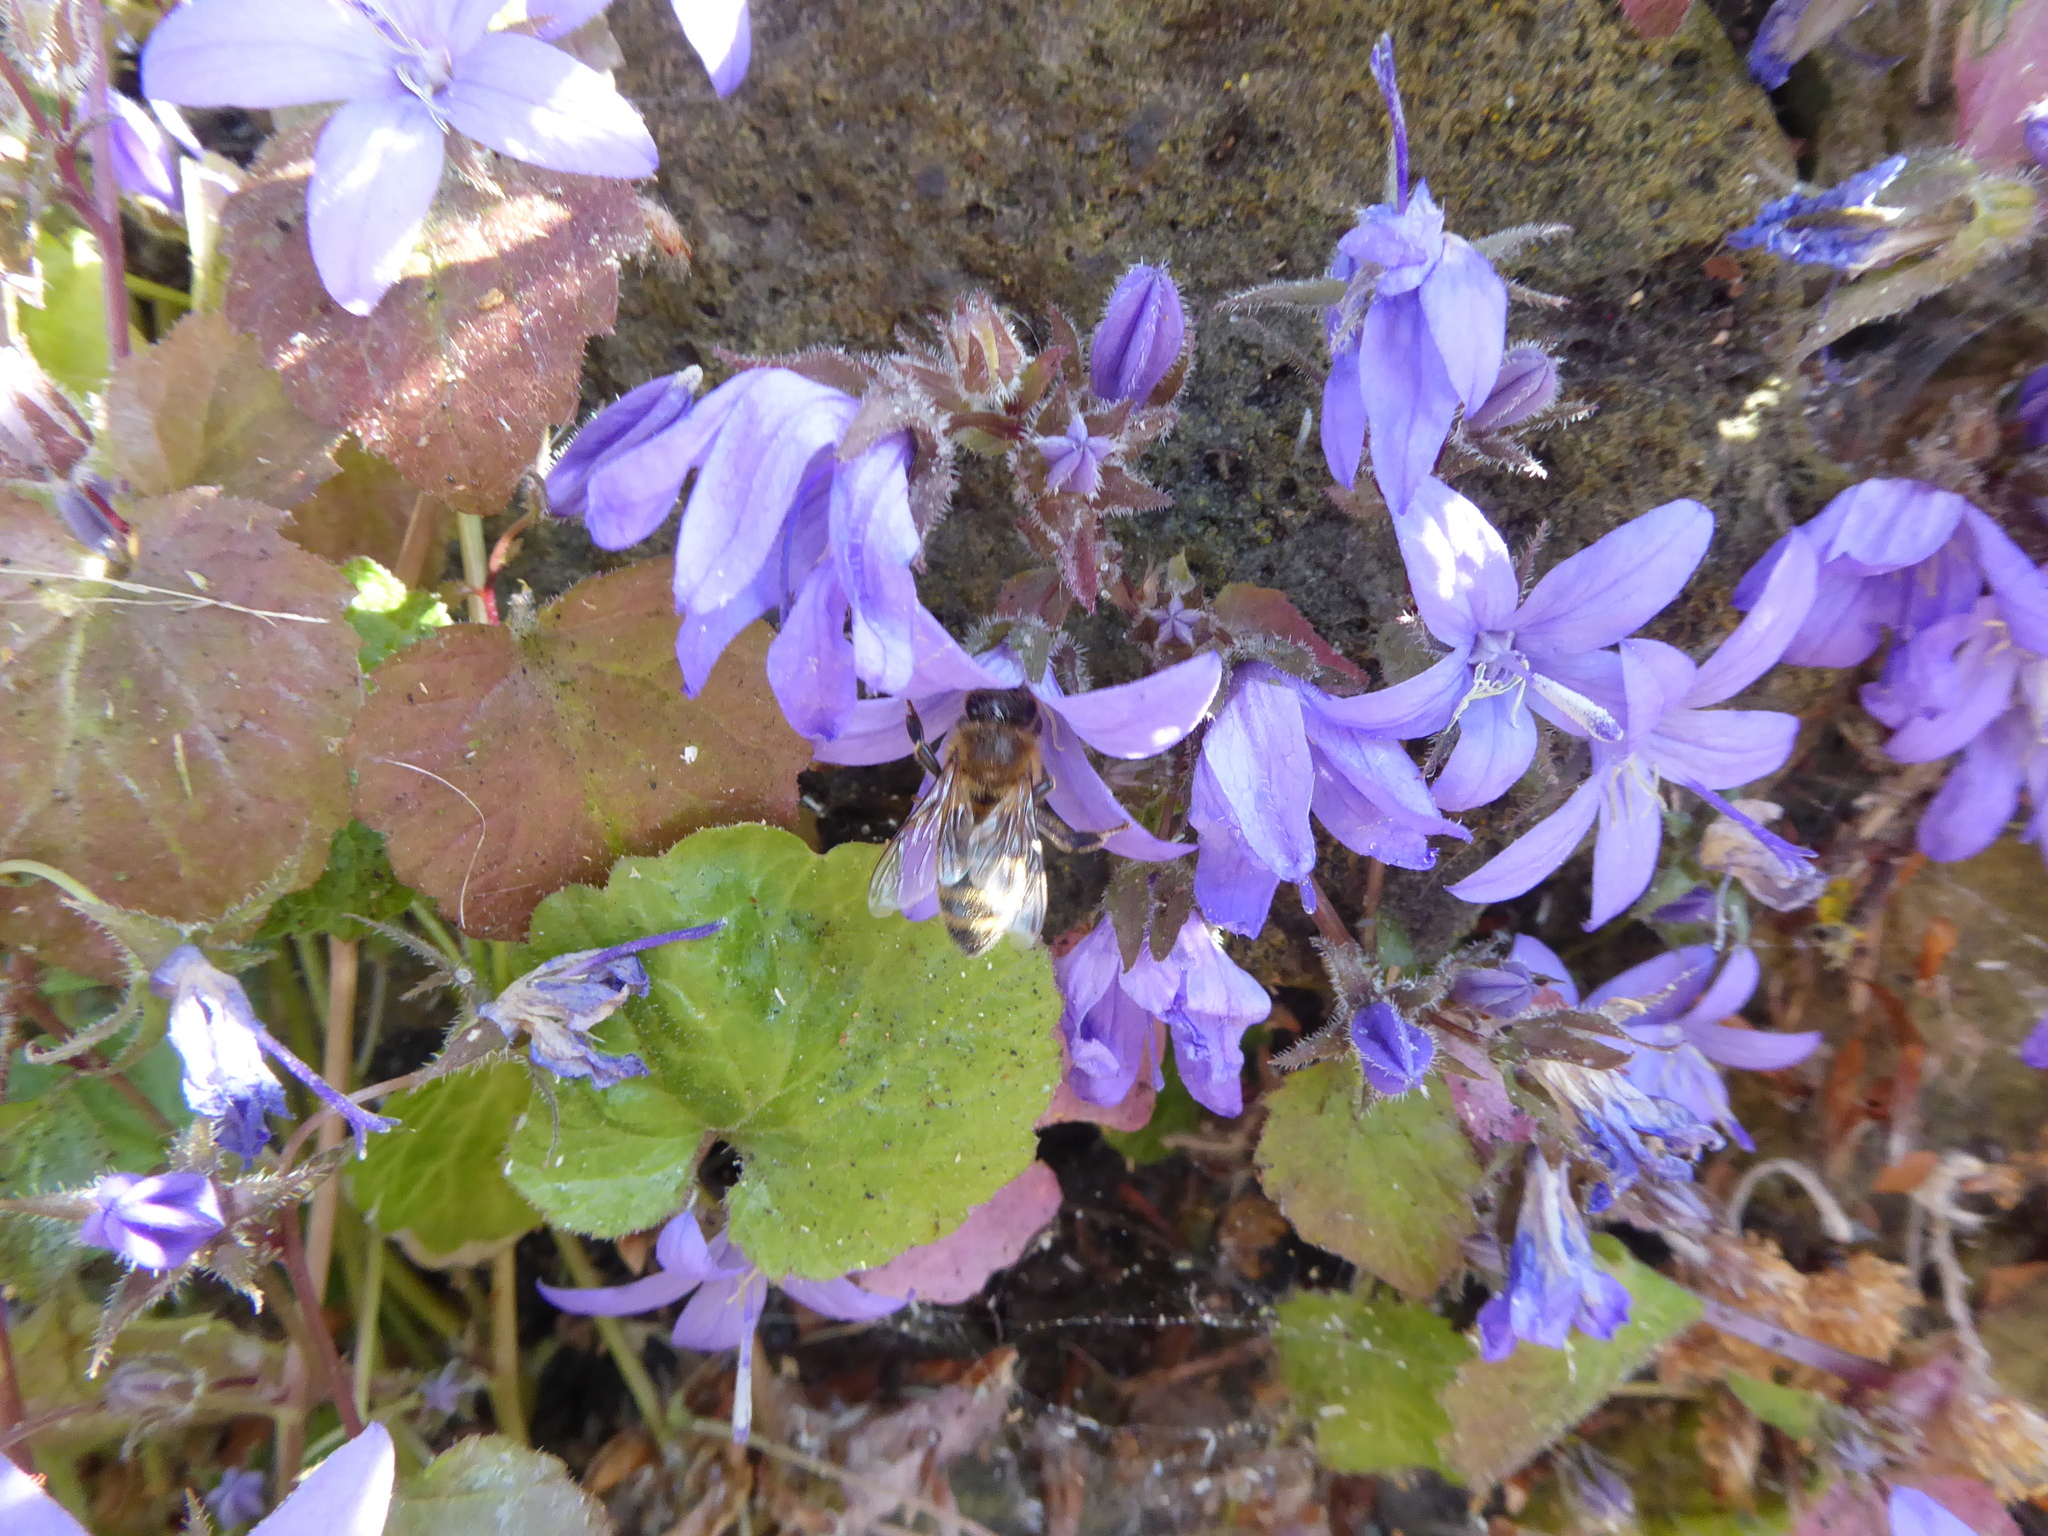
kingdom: Animalia
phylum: Arthropoda
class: Insecta
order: Hymenoptera
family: Apidae
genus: Apis
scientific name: Apis mellifera
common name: Honey bee
